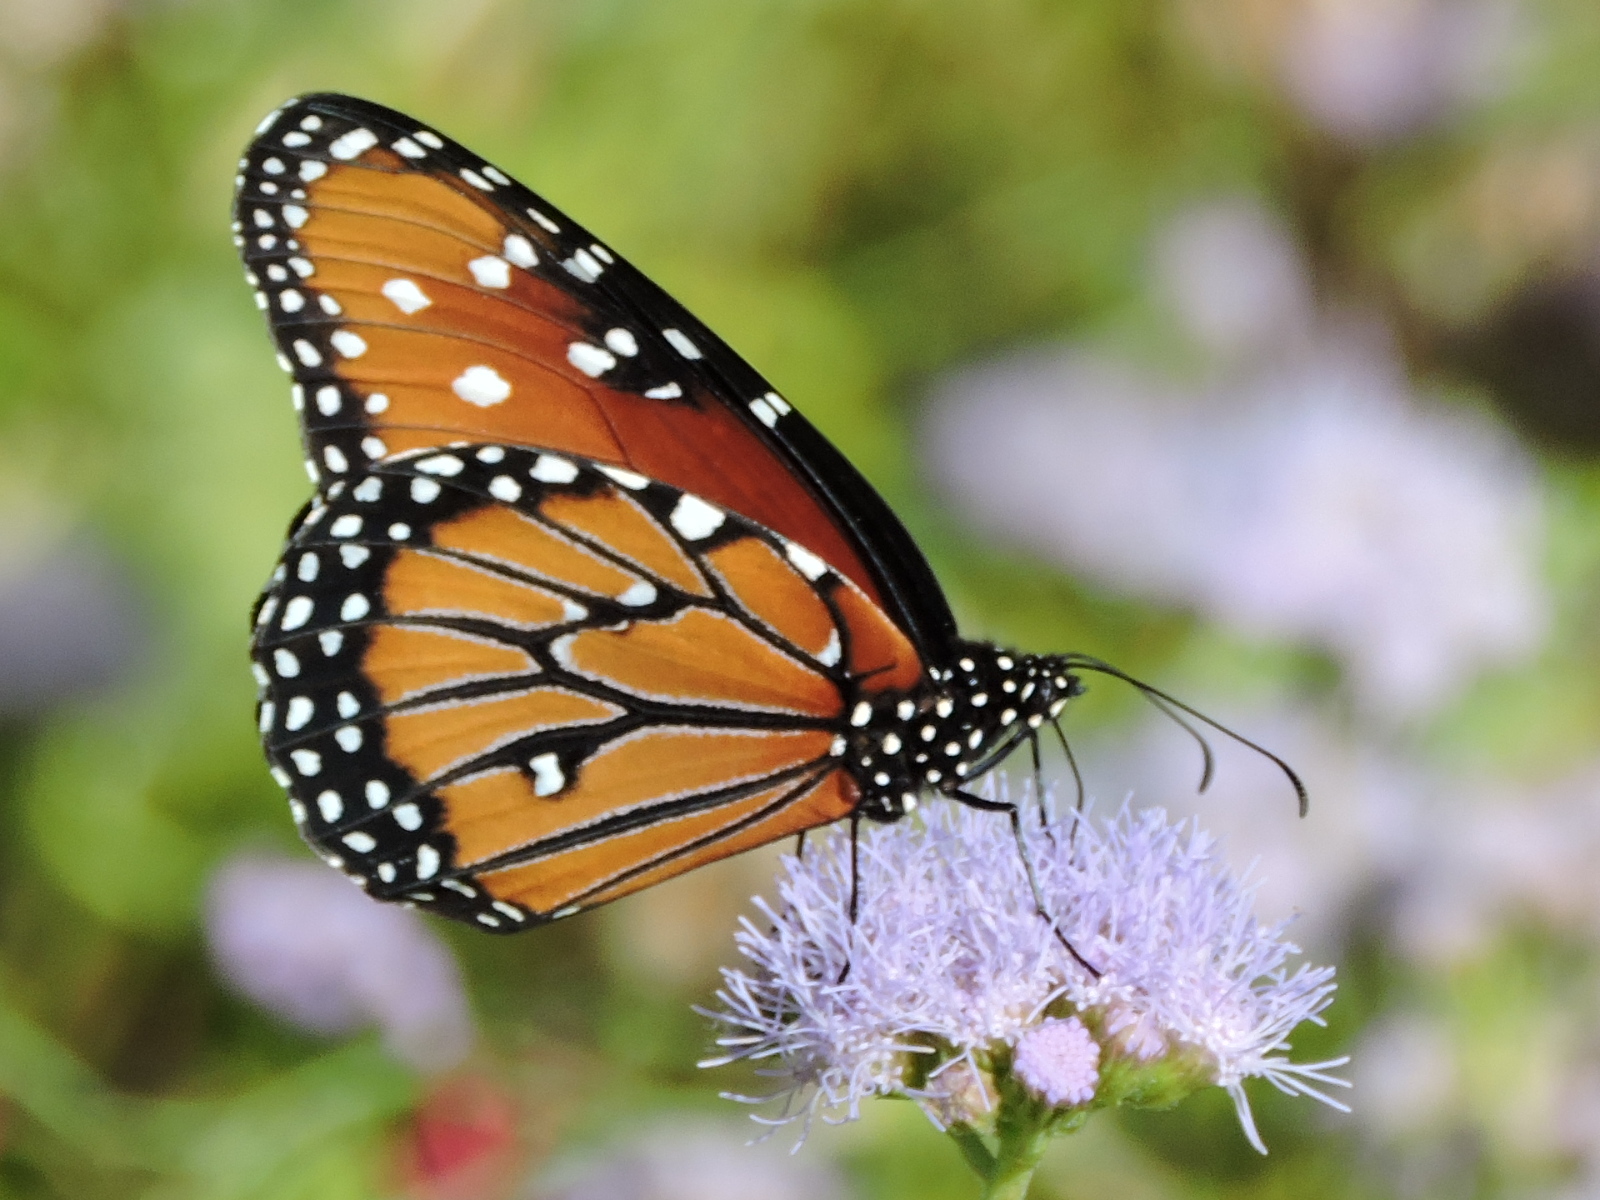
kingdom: Animalia
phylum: Arthropoda
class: Insecta
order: Lepidoptera
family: Nymphalidae
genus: Danaus
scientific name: Danaus gilippus
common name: Queen
